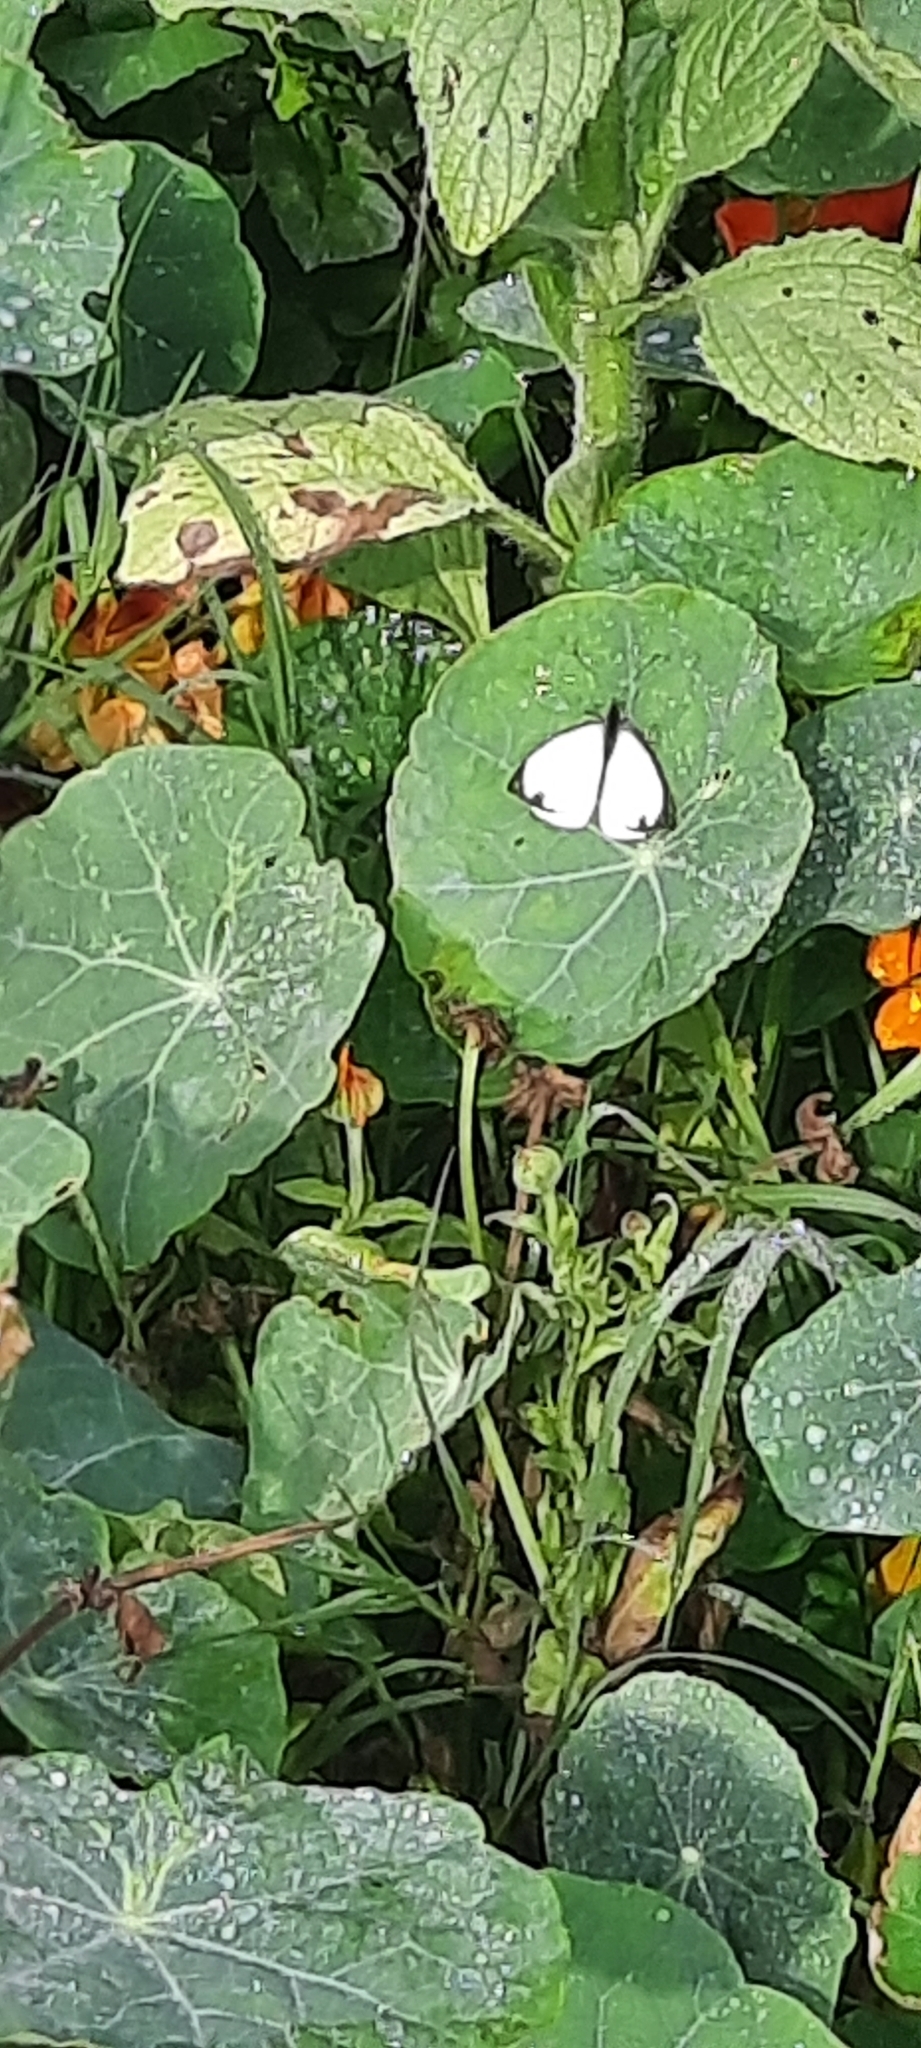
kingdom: Animalia
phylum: Arthropoda
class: Insecta
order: Lepidoptera
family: Pieridae
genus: Leptophobia
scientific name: Leptophobia aripa
